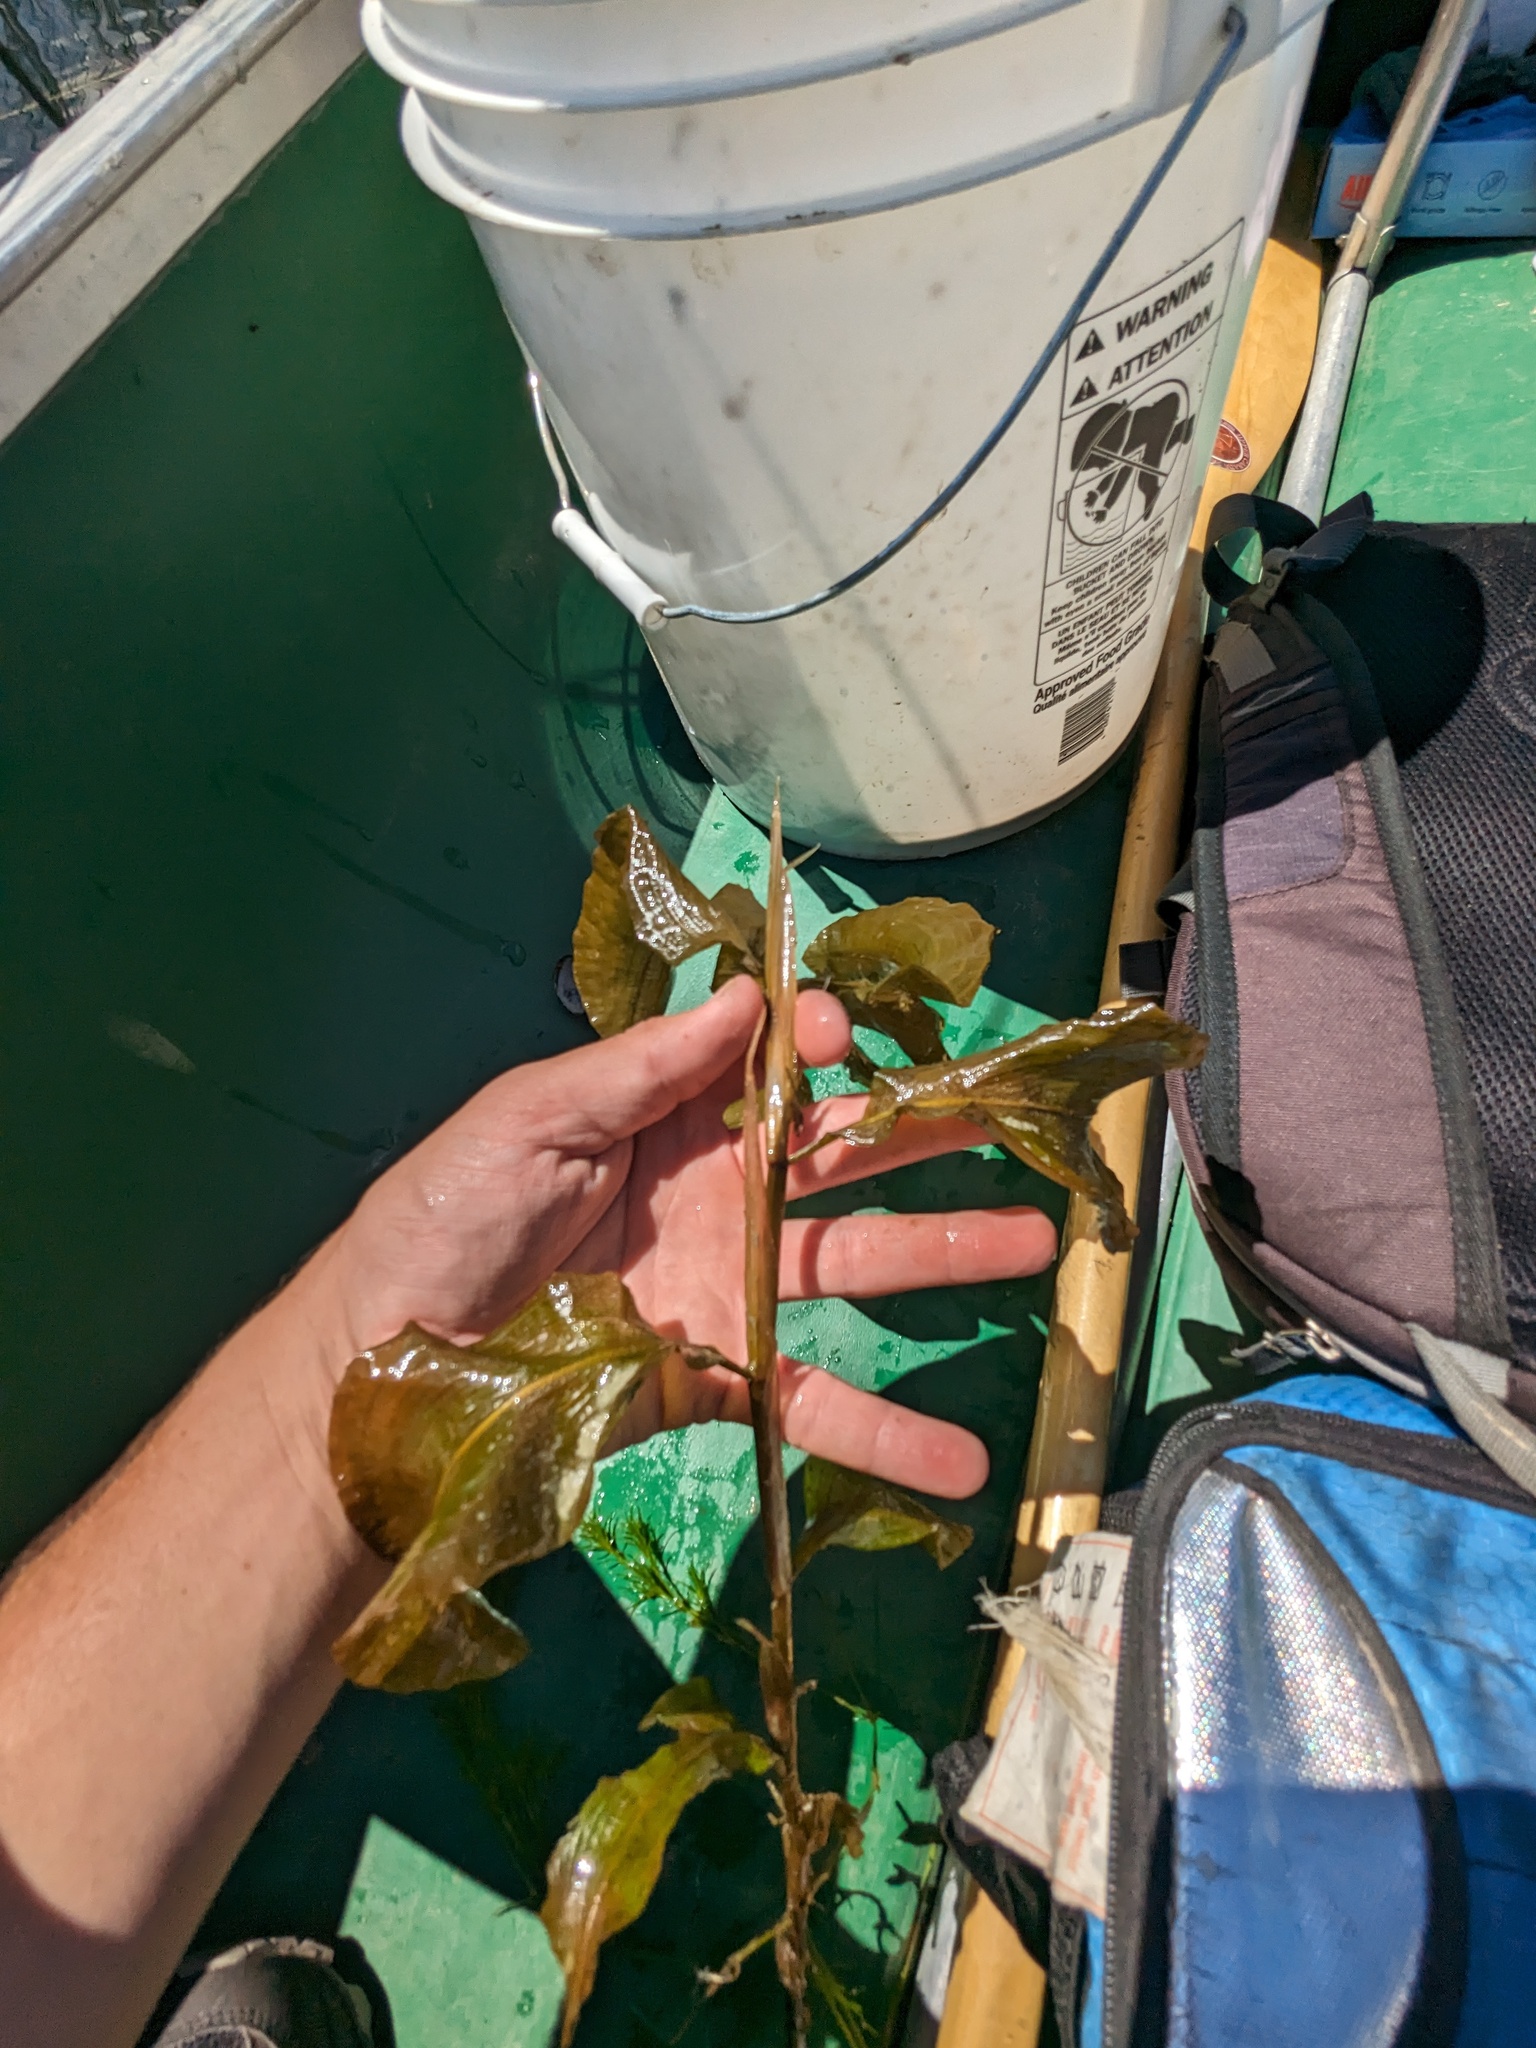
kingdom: Plantae
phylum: Tracheophyta
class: Liliopsida
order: Alismatales
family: Potamogetonaceae
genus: Potamogeton
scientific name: Potamogeton amplifolius
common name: Broad-leaved pondweed
